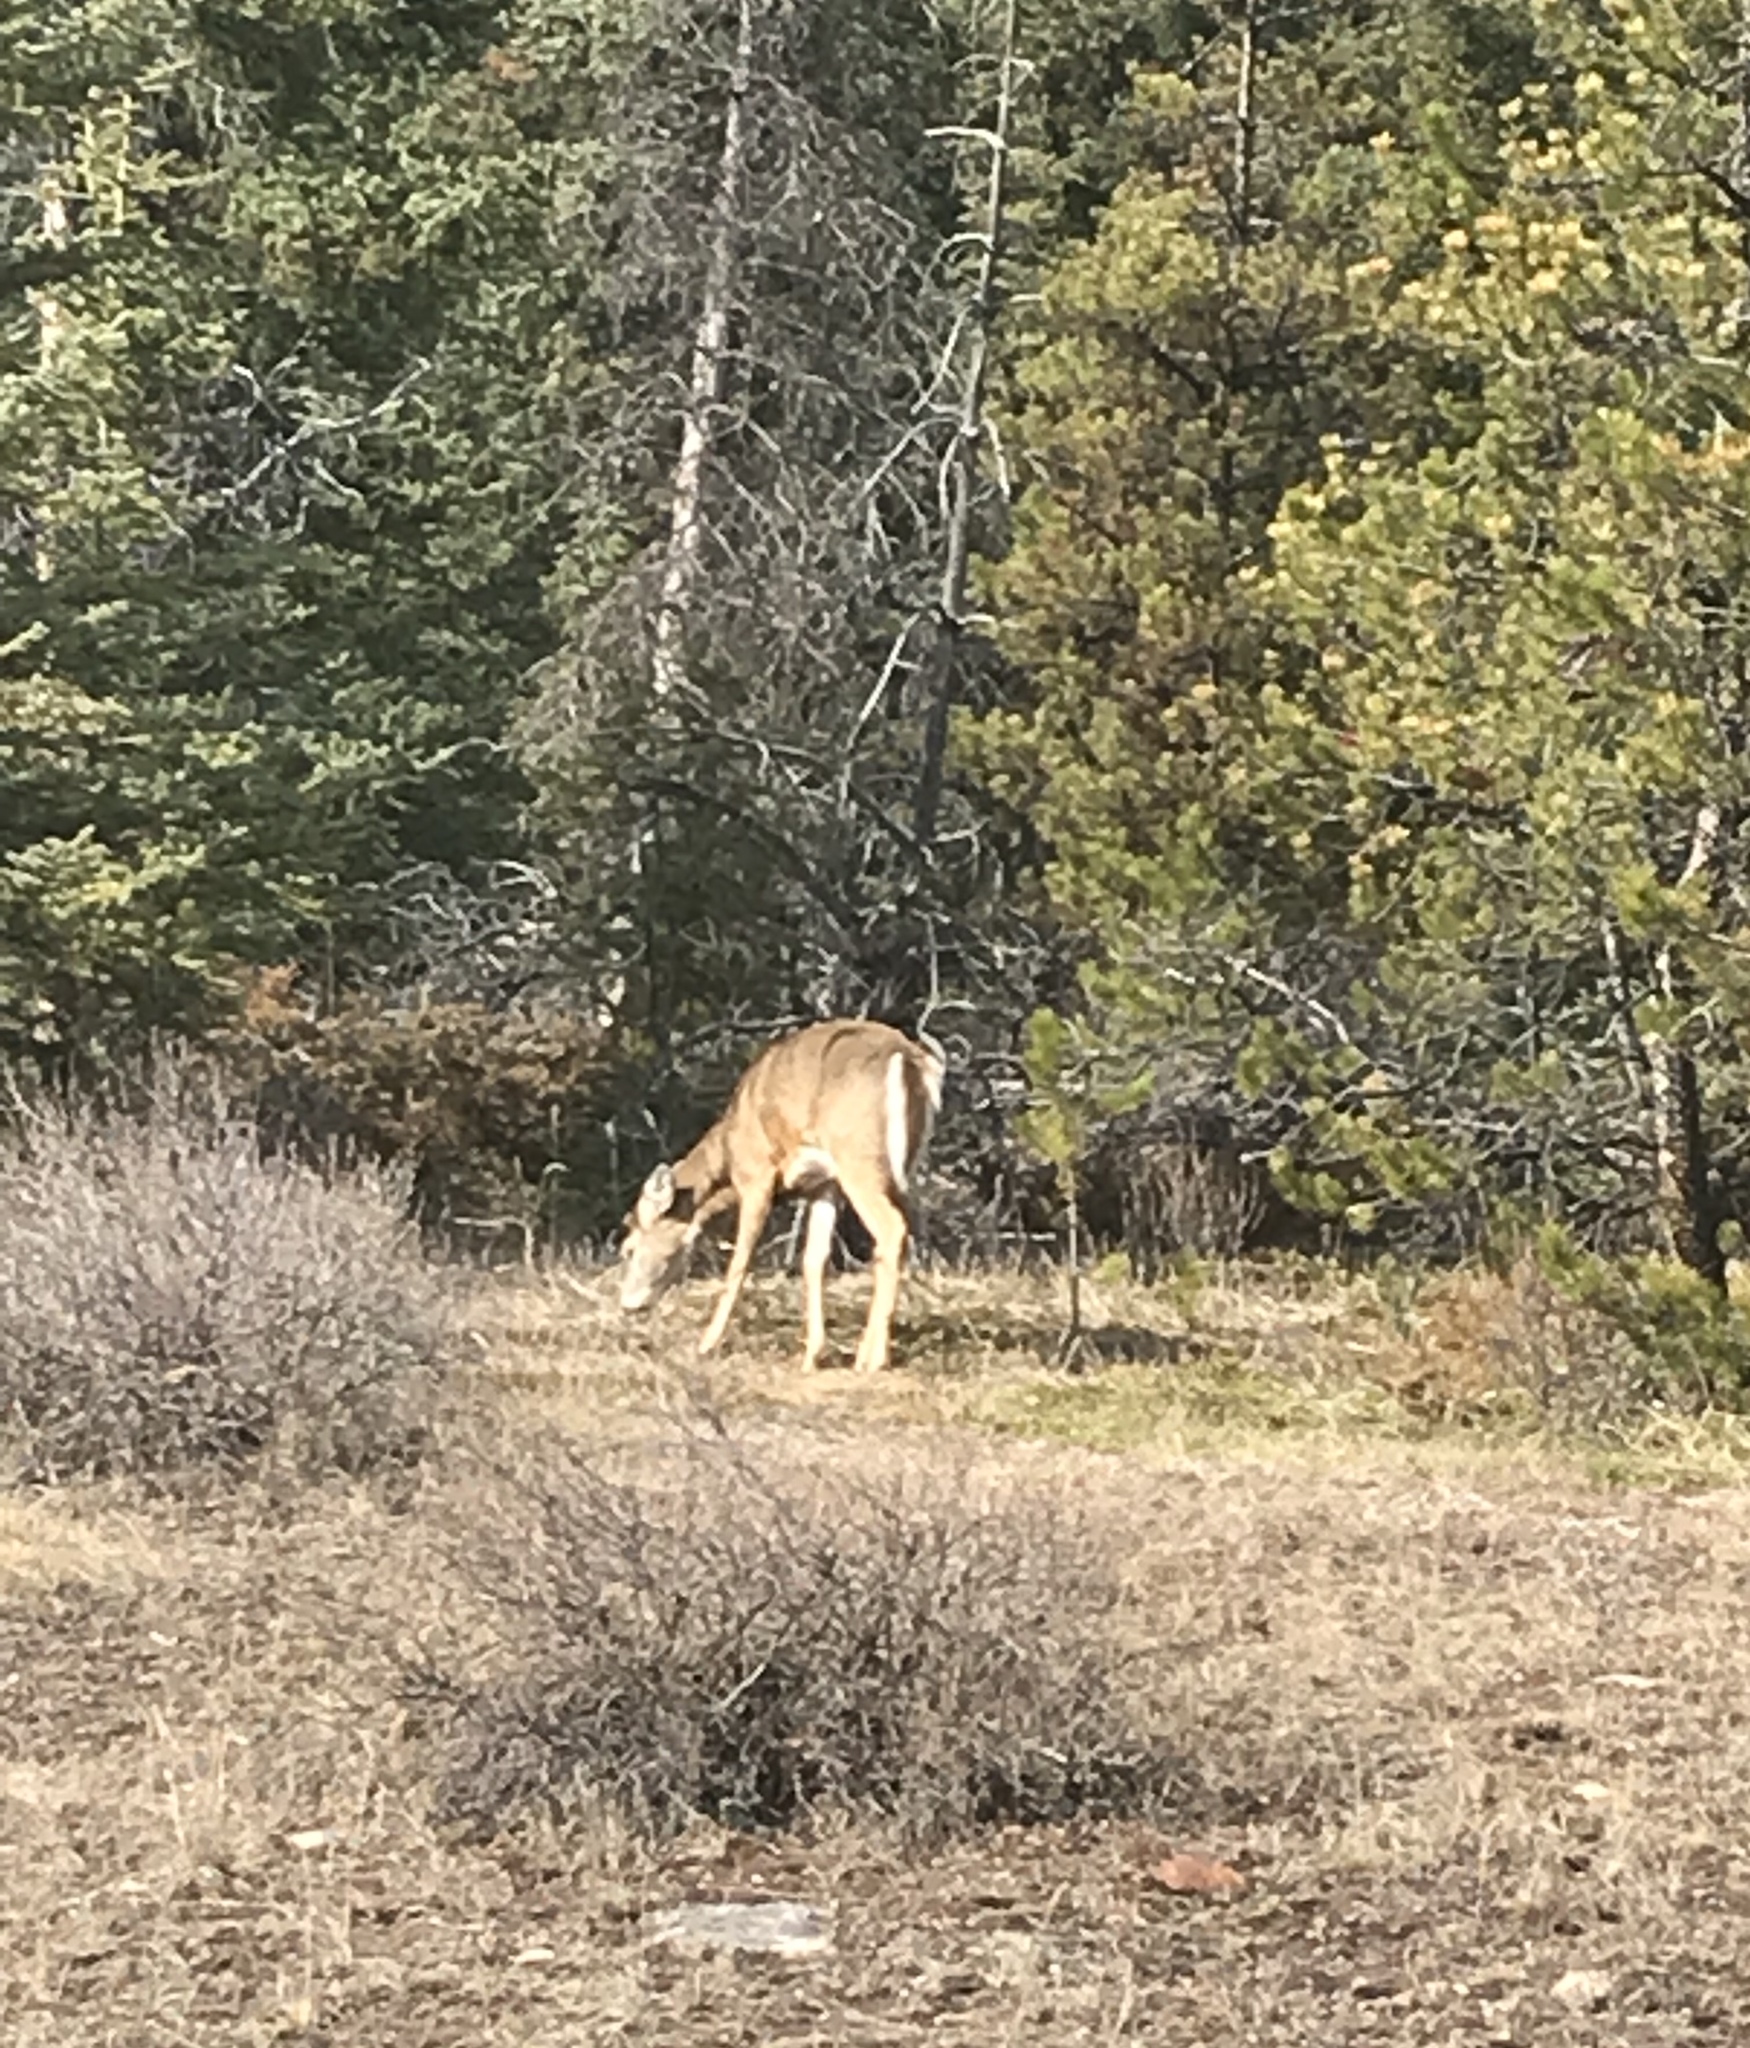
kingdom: Animalia
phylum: Chordata
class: Mammalia
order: Artiodactyla
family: Cervidae
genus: Odocoileus
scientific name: Odocoileus virginianus
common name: White-tailed deer
